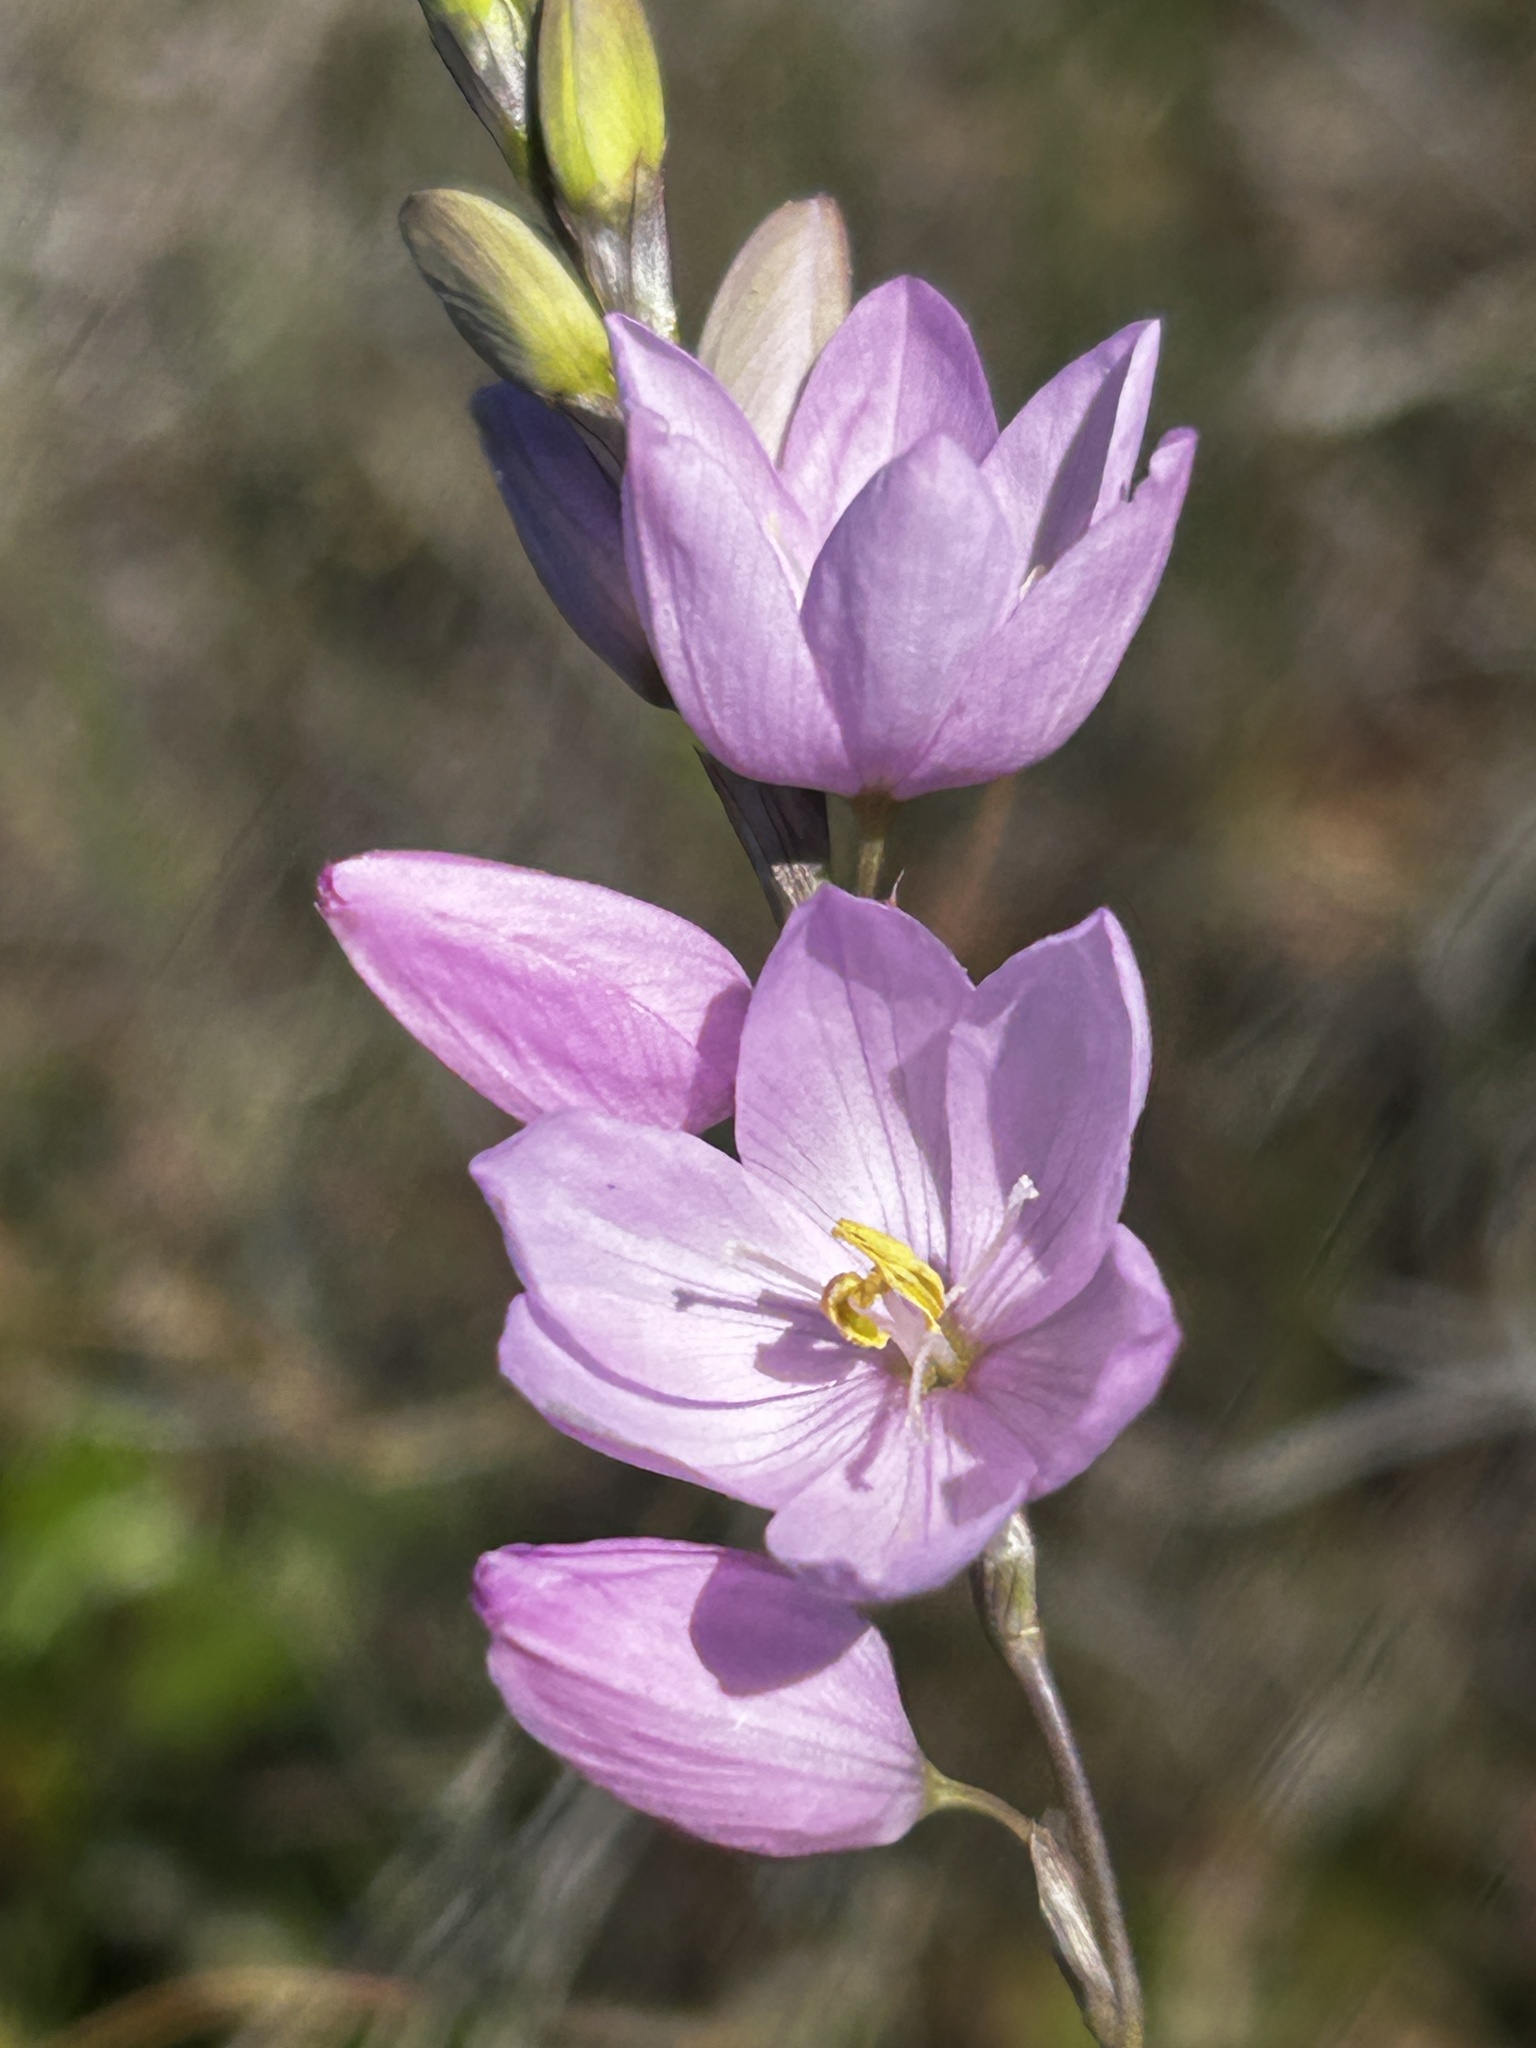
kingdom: Plantae
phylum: Tracheophyta
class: Liliopsida
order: Asparagales
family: Iridaceae
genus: Ixia
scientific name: Ixia flexuosa
